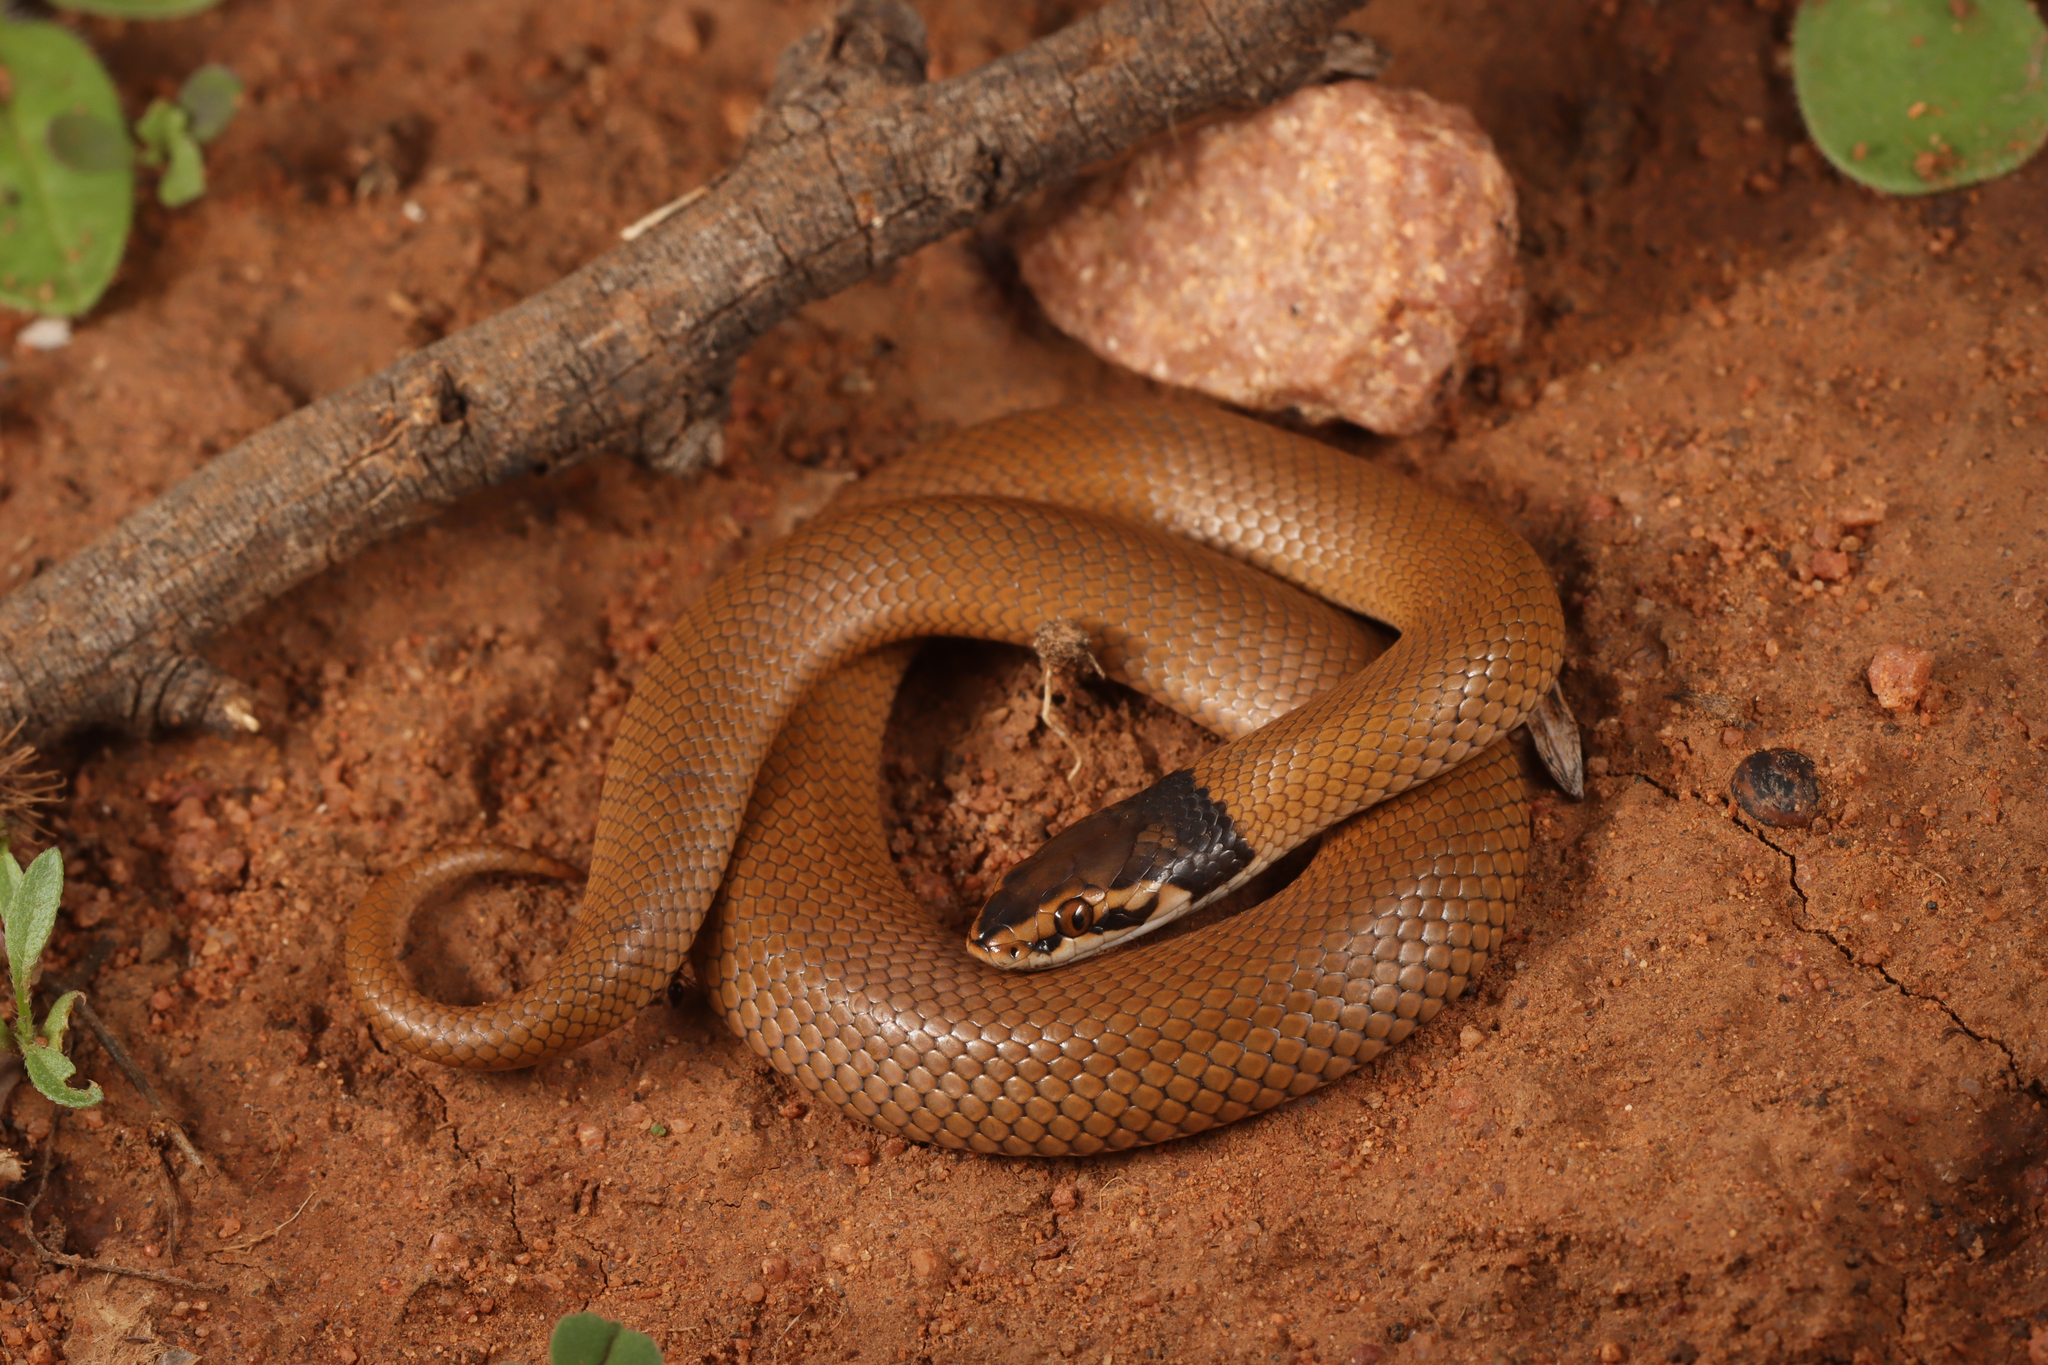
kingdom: Animalia
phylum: Chordata
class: Squamata
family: Elapidae
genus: Suta
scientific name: Suta suta
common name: Curl snake
